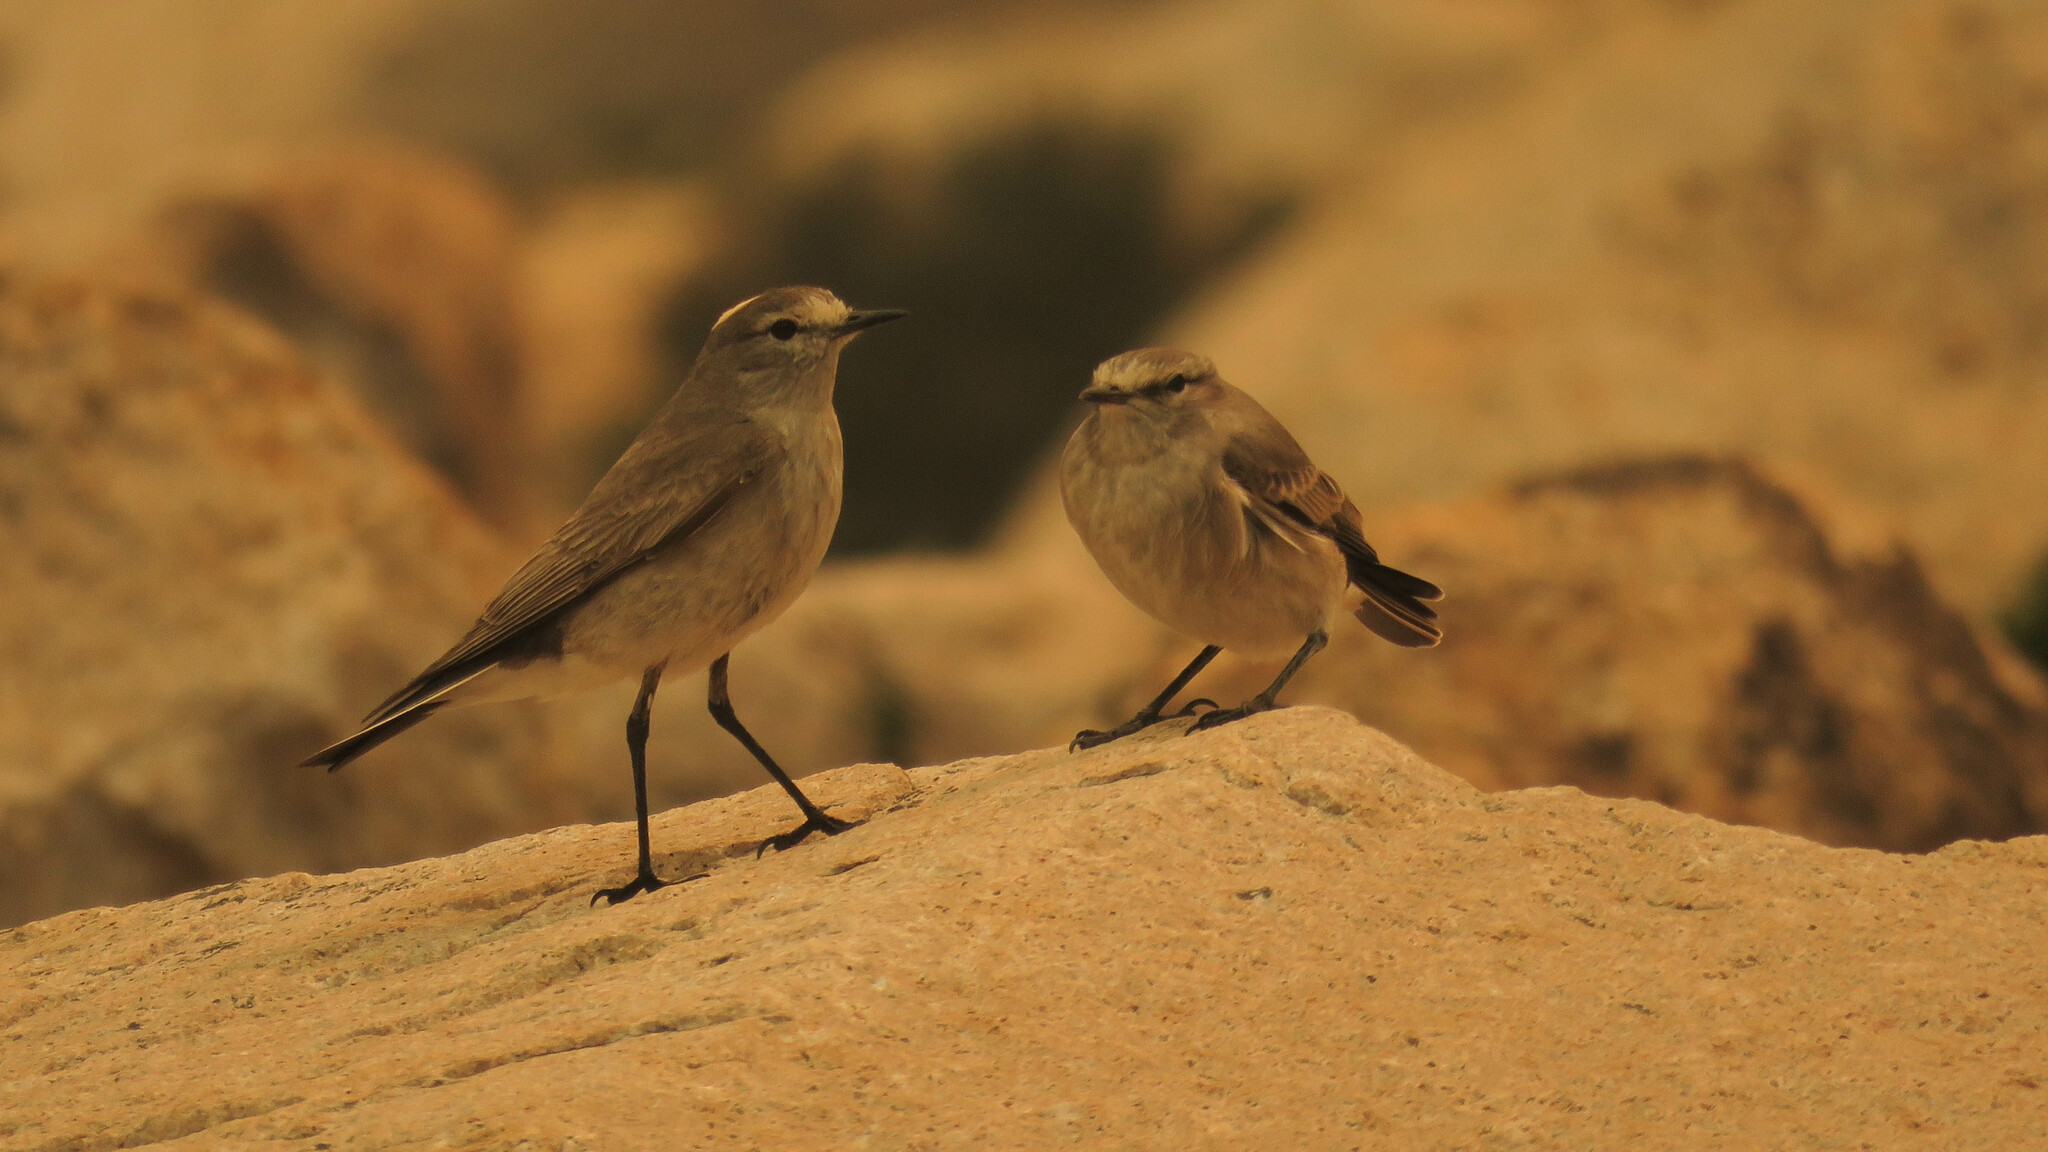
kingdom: Animalia
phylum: Chordata
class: Aves
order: Passeriformes
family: Tyrannidae
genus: Muscisaxicola
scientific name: Muscisaxicola flavinucha
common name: Ochre-naped ground tyrant
